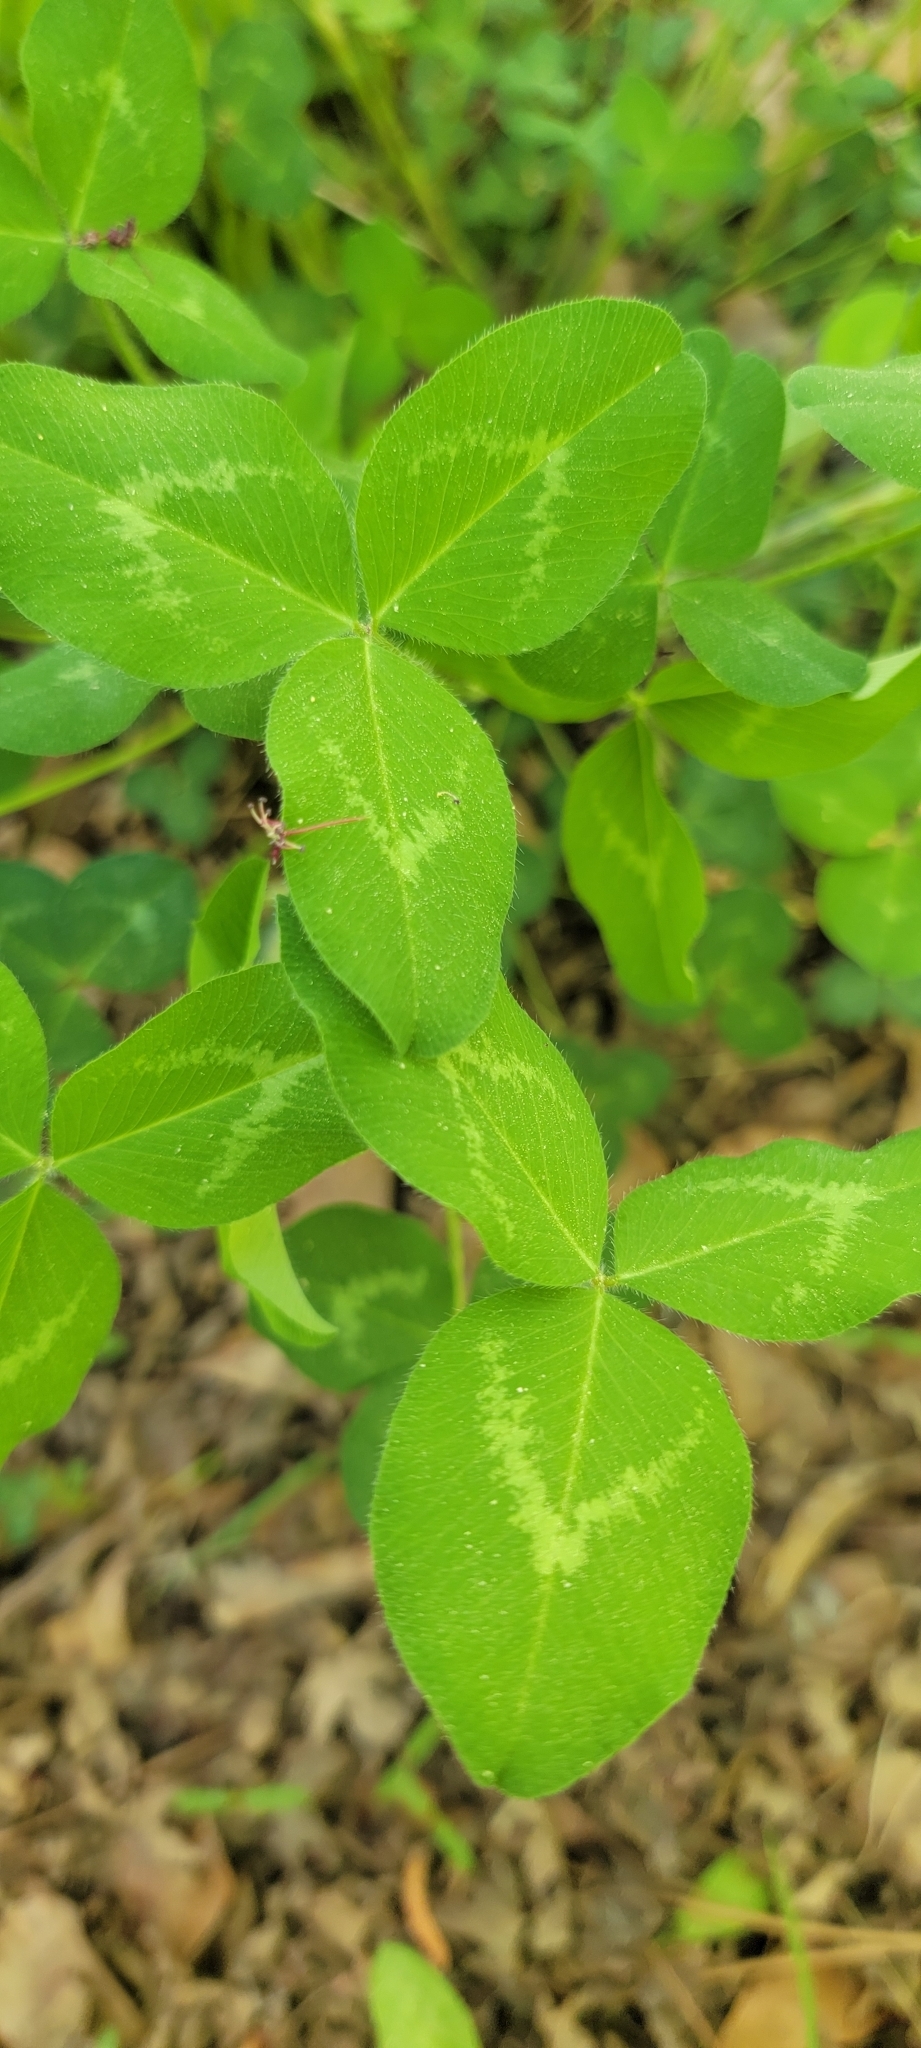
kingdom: Plantae
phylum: Tracheophyta
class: Magnoliopsida
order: Fabales
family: Fabaceae
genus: Trifolium
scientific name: Trifolium pratense
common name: Red clover
